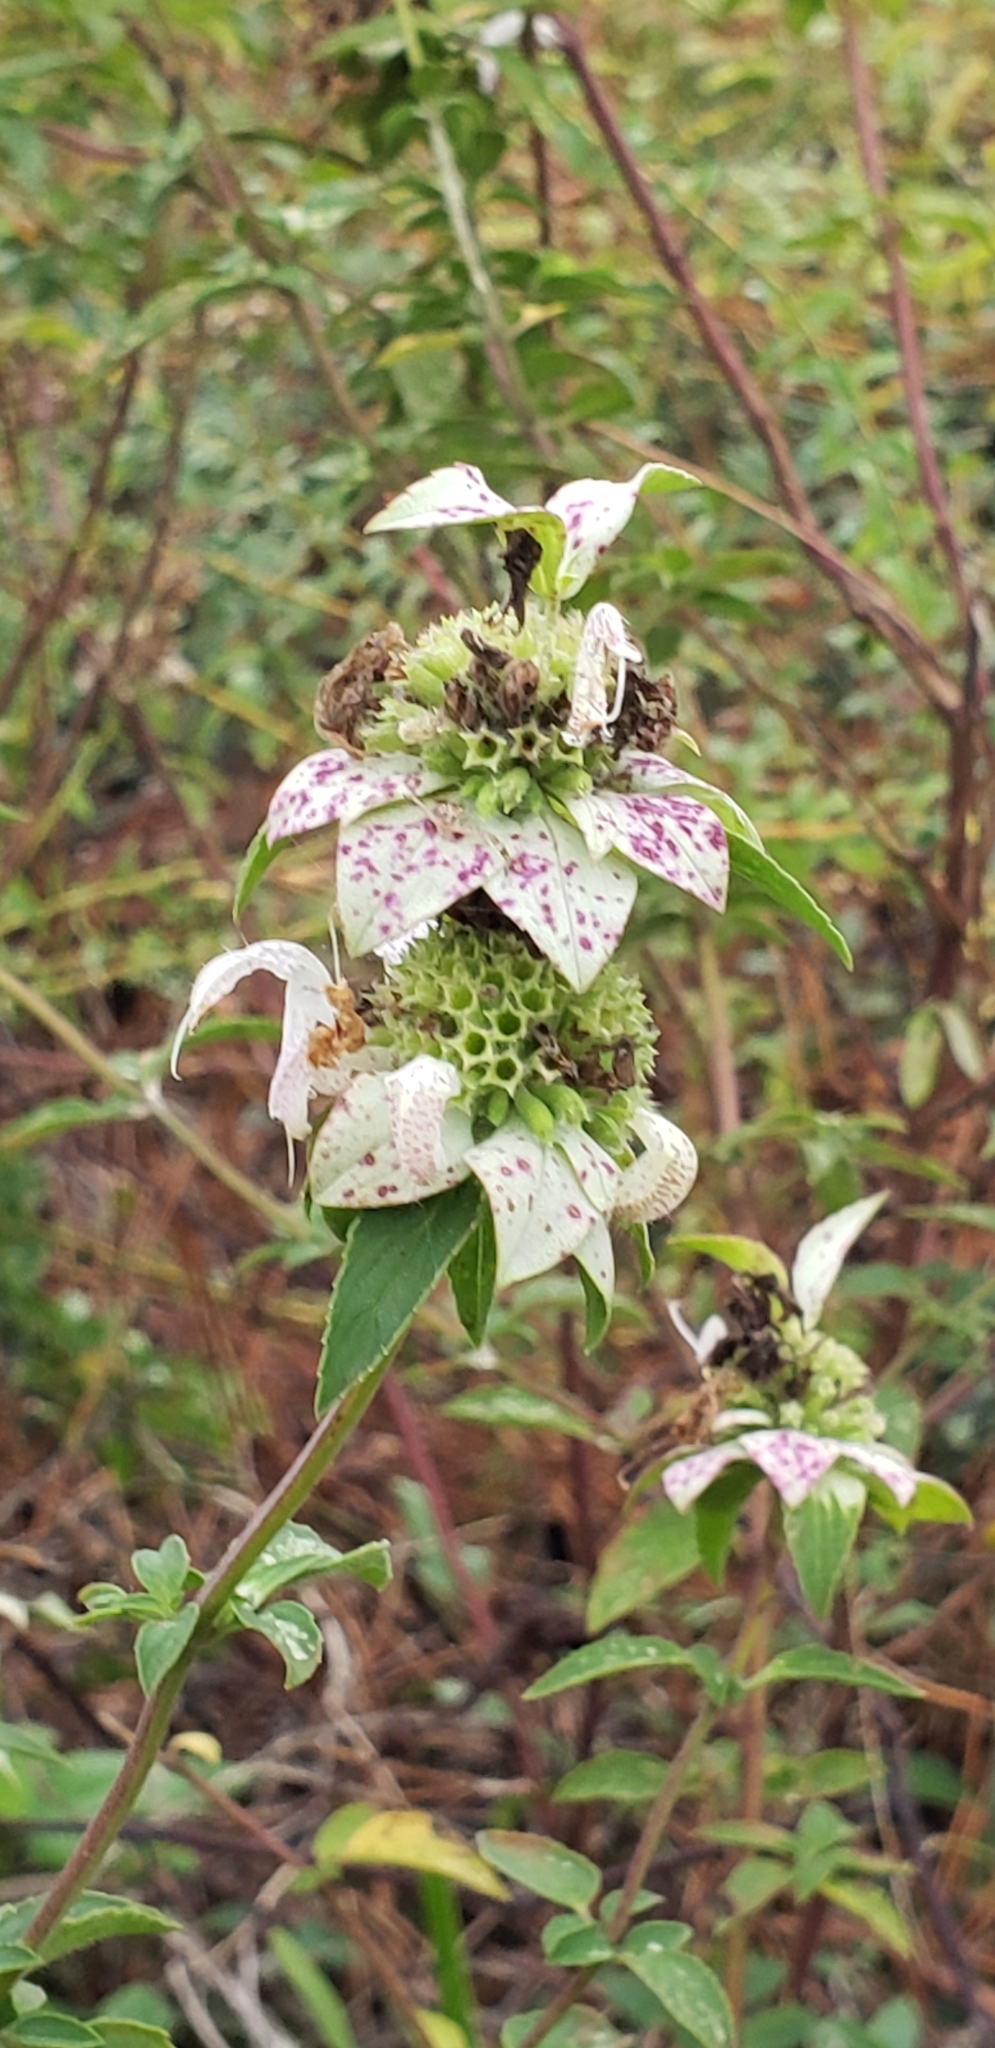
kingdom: Plantae
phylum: Tracheophyta
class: Magnoliopsida
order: Lamiales
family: Lamiaceae
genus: Monarda
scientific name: Monarda punctata
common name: Dotted monarda
